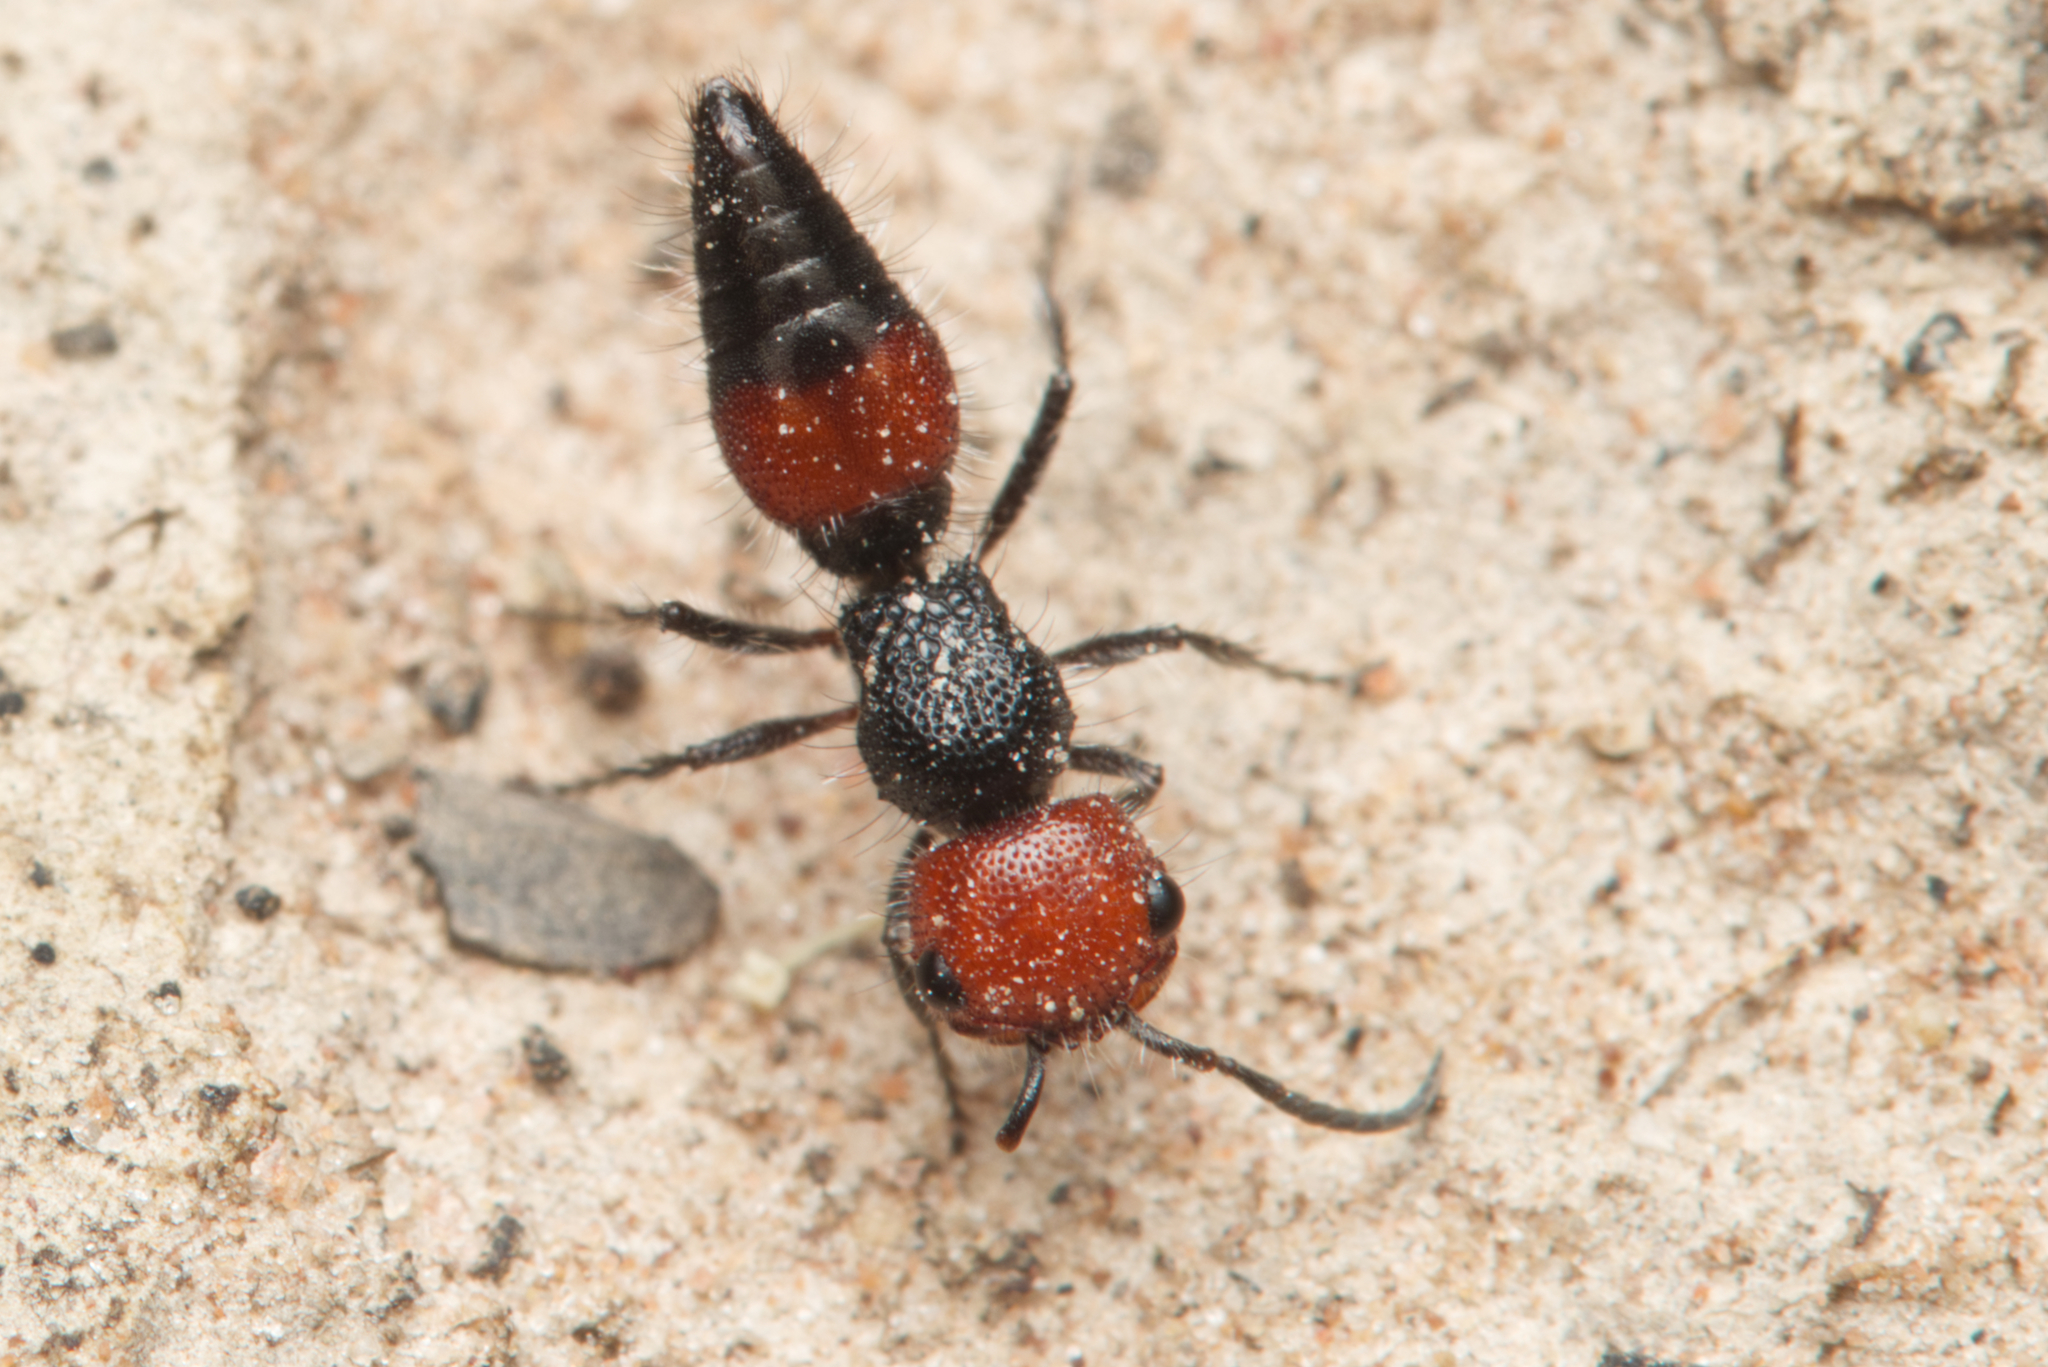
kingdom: Animalia
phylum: Arthropoda
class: Insecta
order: Hymenoptera
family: Mutillidae
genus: Ephutomorpha
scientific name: Ephutomorpha
